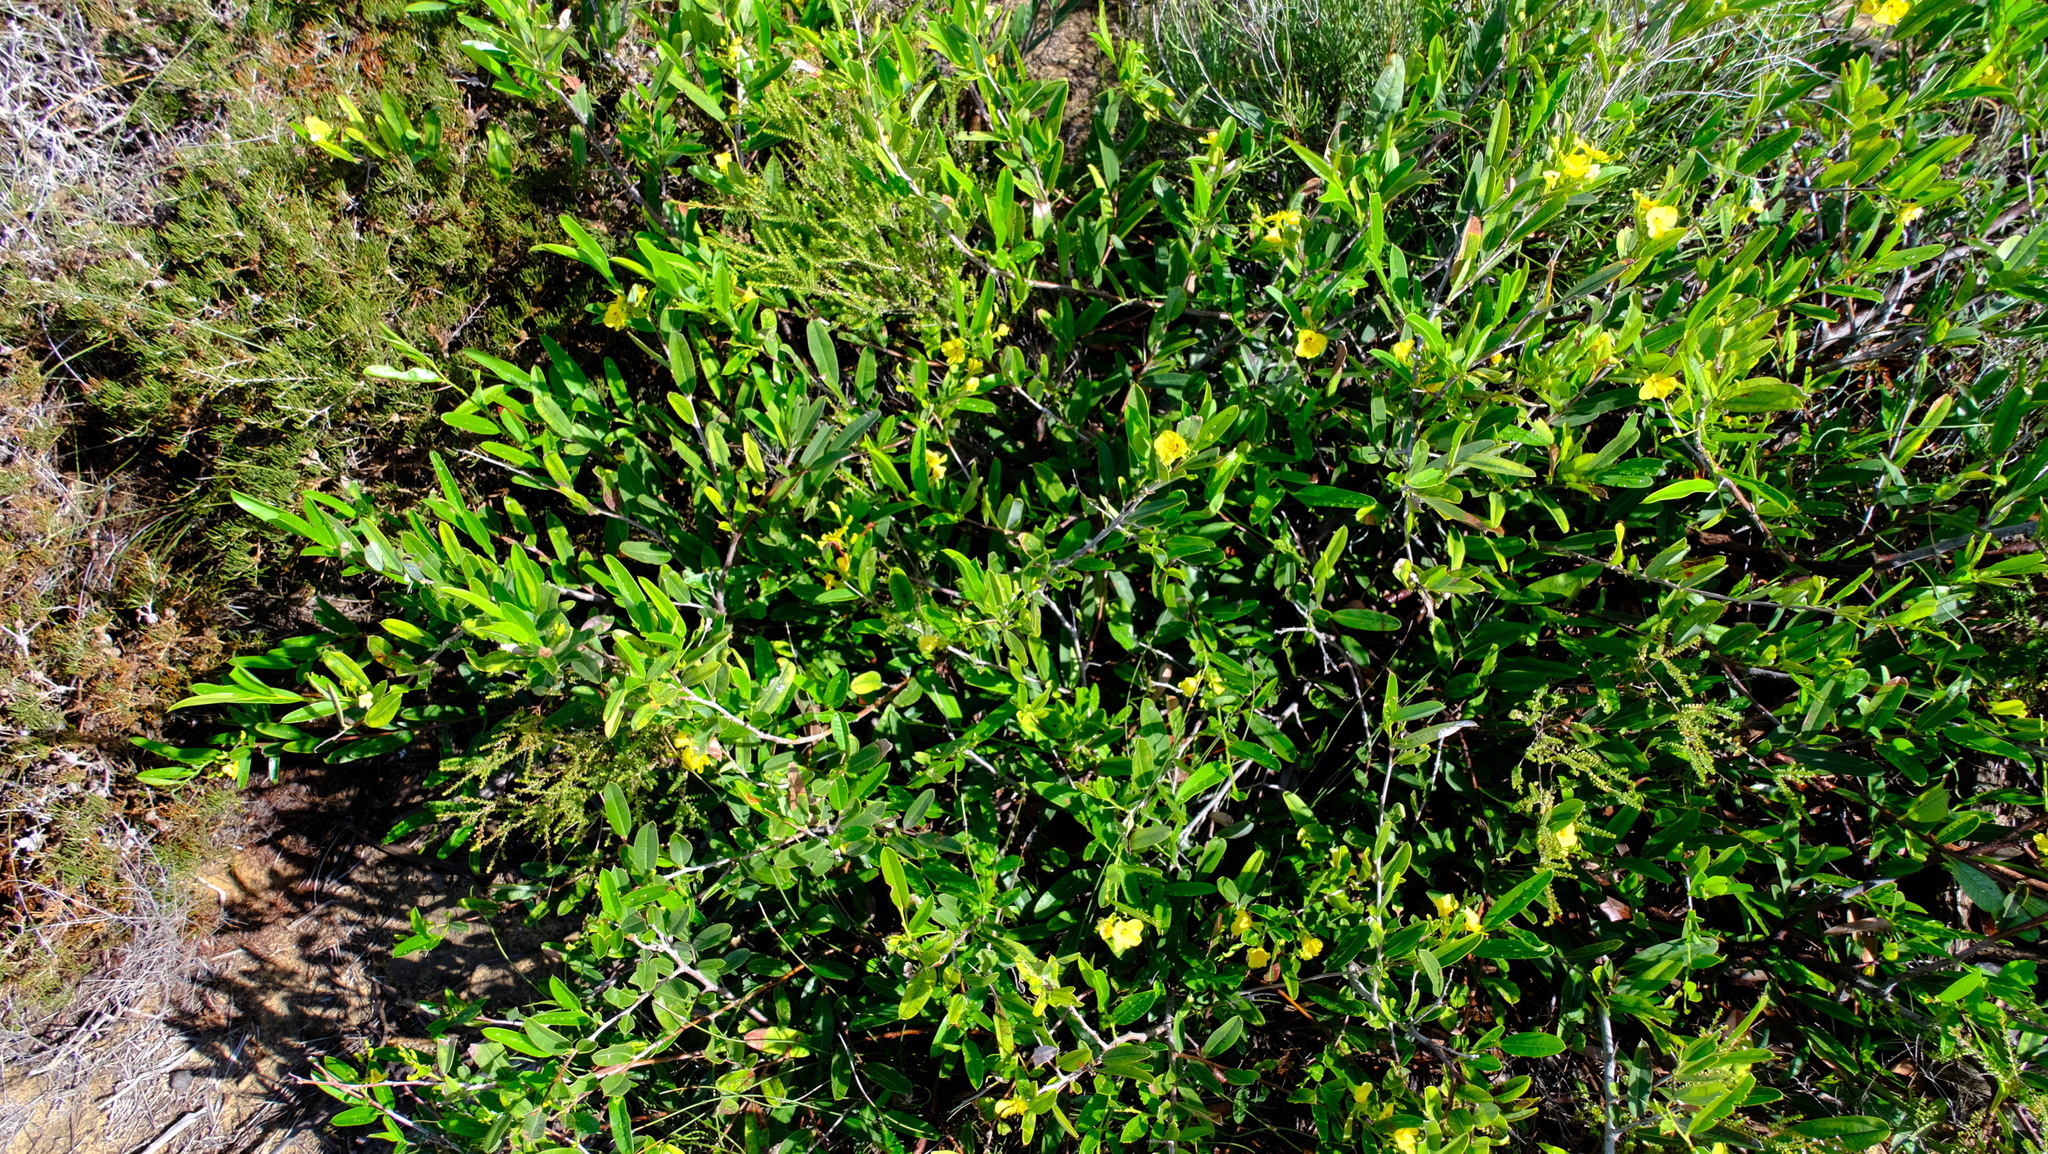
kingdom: Plantae
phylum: Tracheophyta
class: Magnoliopsida
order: Fabales
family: Fabaceae
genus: Labichea
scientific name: Labichea lanceolata
